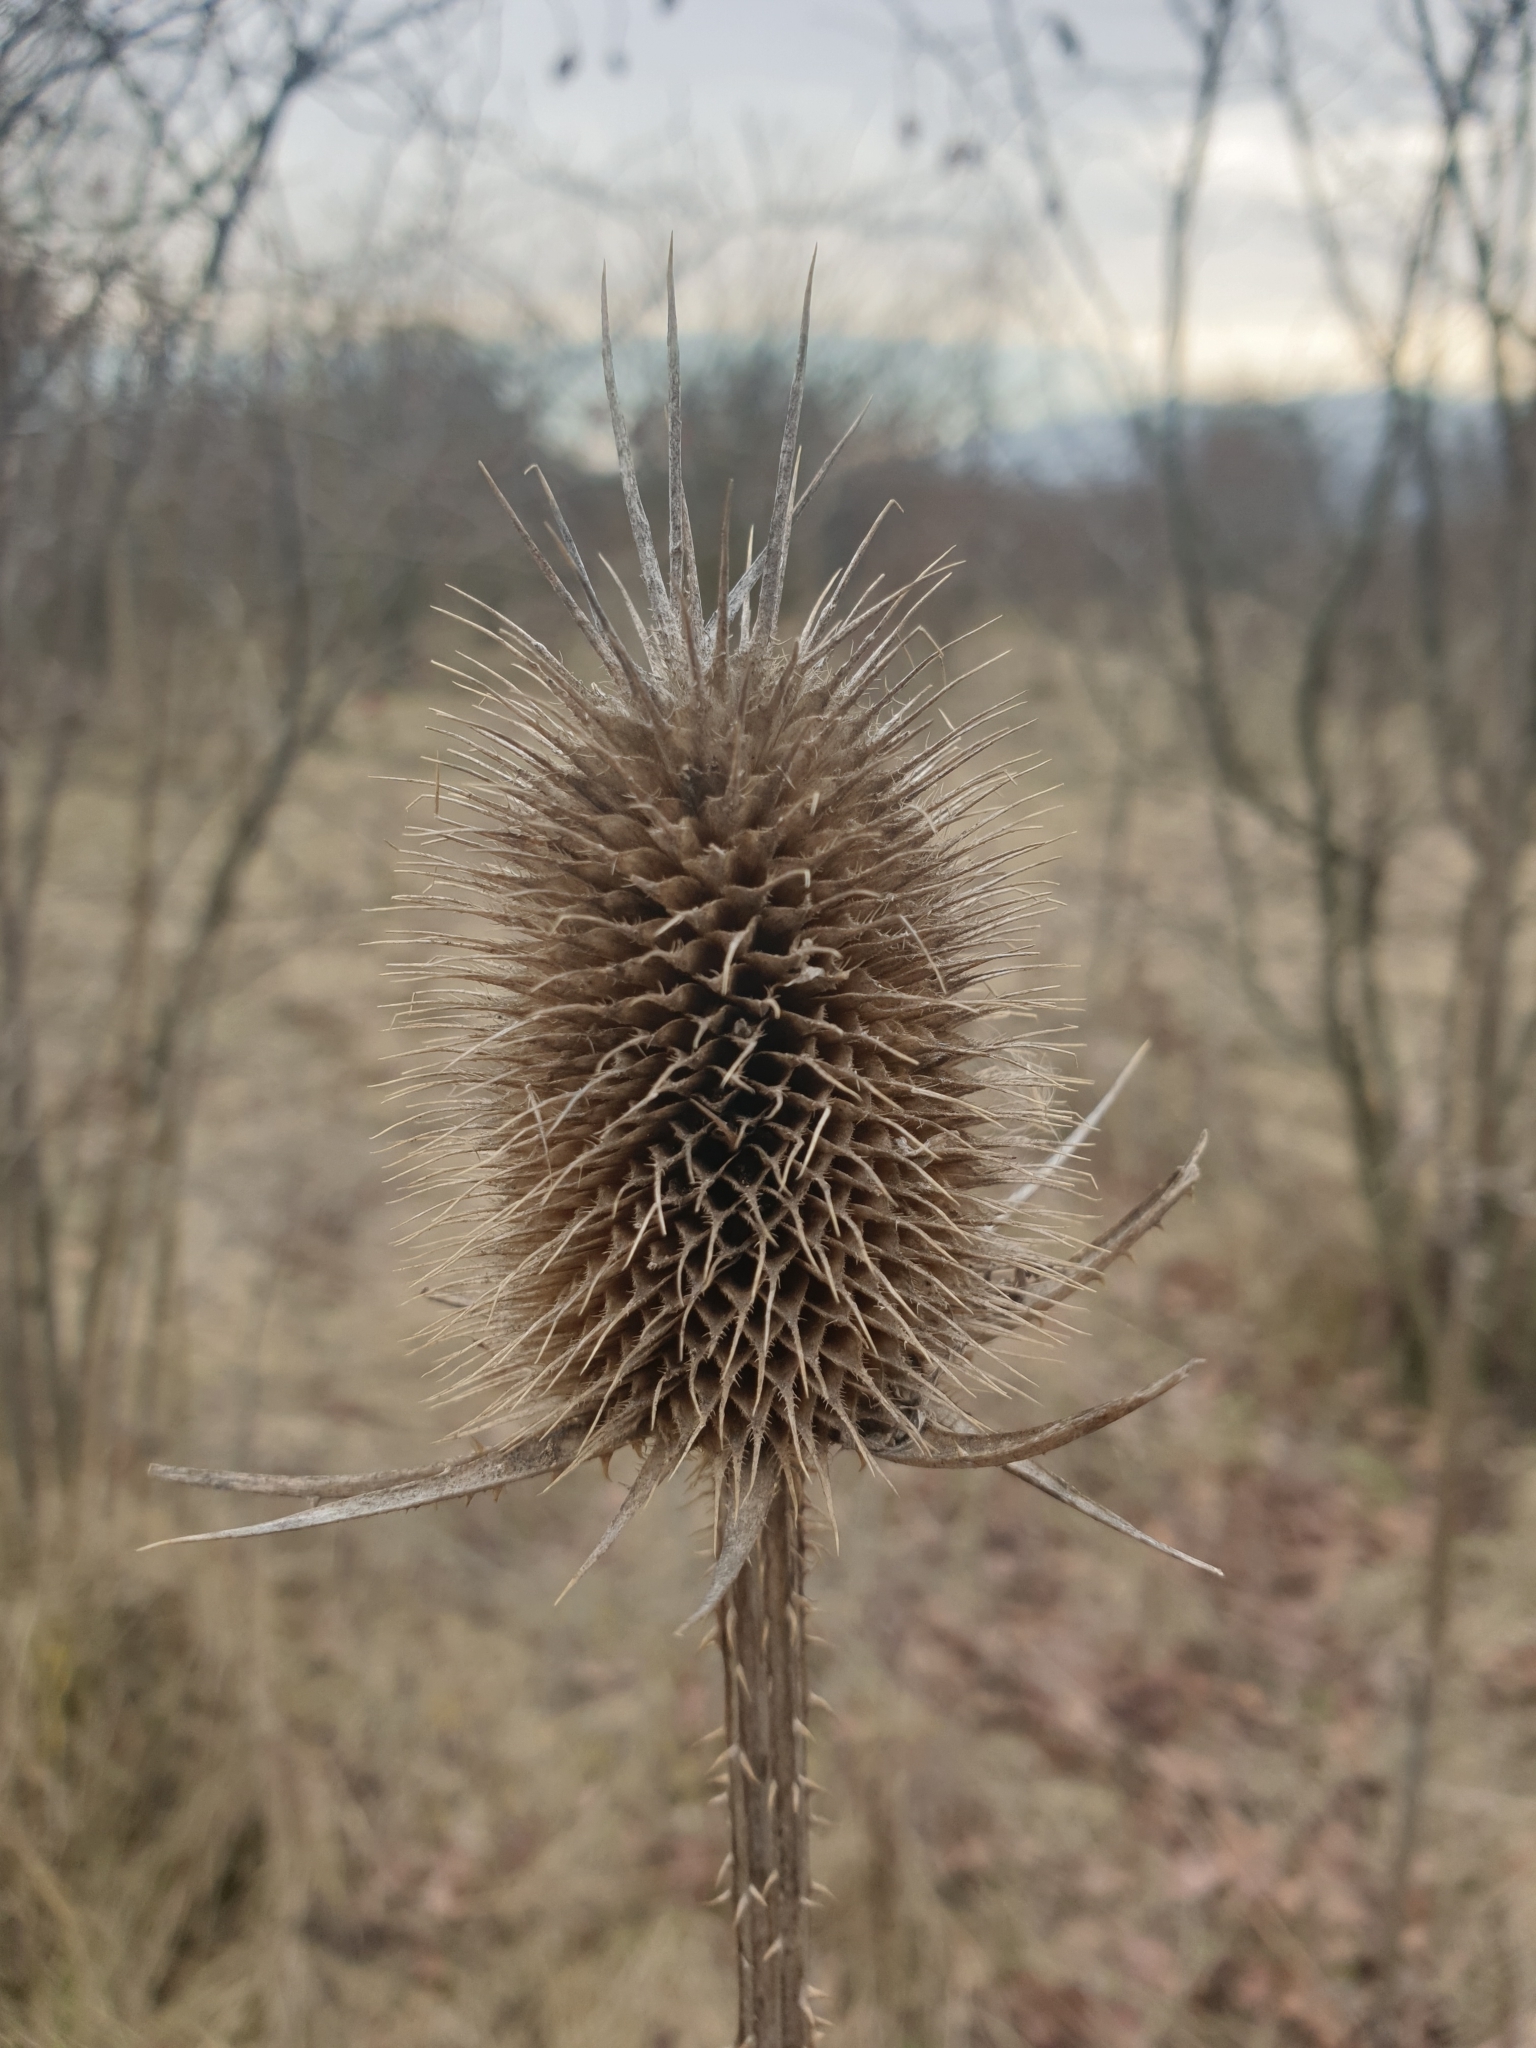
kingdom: Plantae
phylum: Tracheophyta
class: Magnoliopsida
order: Dipsacales
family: Caprifoliaceae
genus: Dipsacus
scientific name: Dipsacus laciniatus
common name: Cut-leaved teasel
